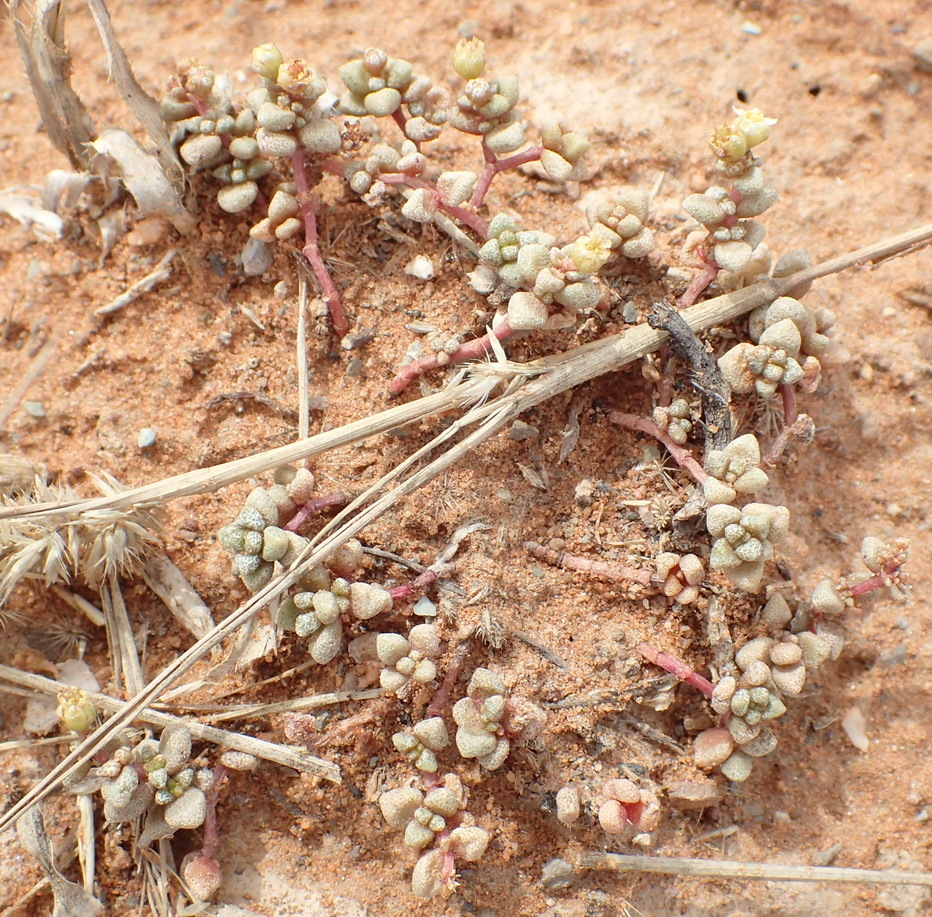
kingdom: Plantae
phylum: Tracheophyta
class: Magnoliopsida
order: Saxifragales
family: Crassulaceae
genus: Crassula
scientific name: Crassula corallina
